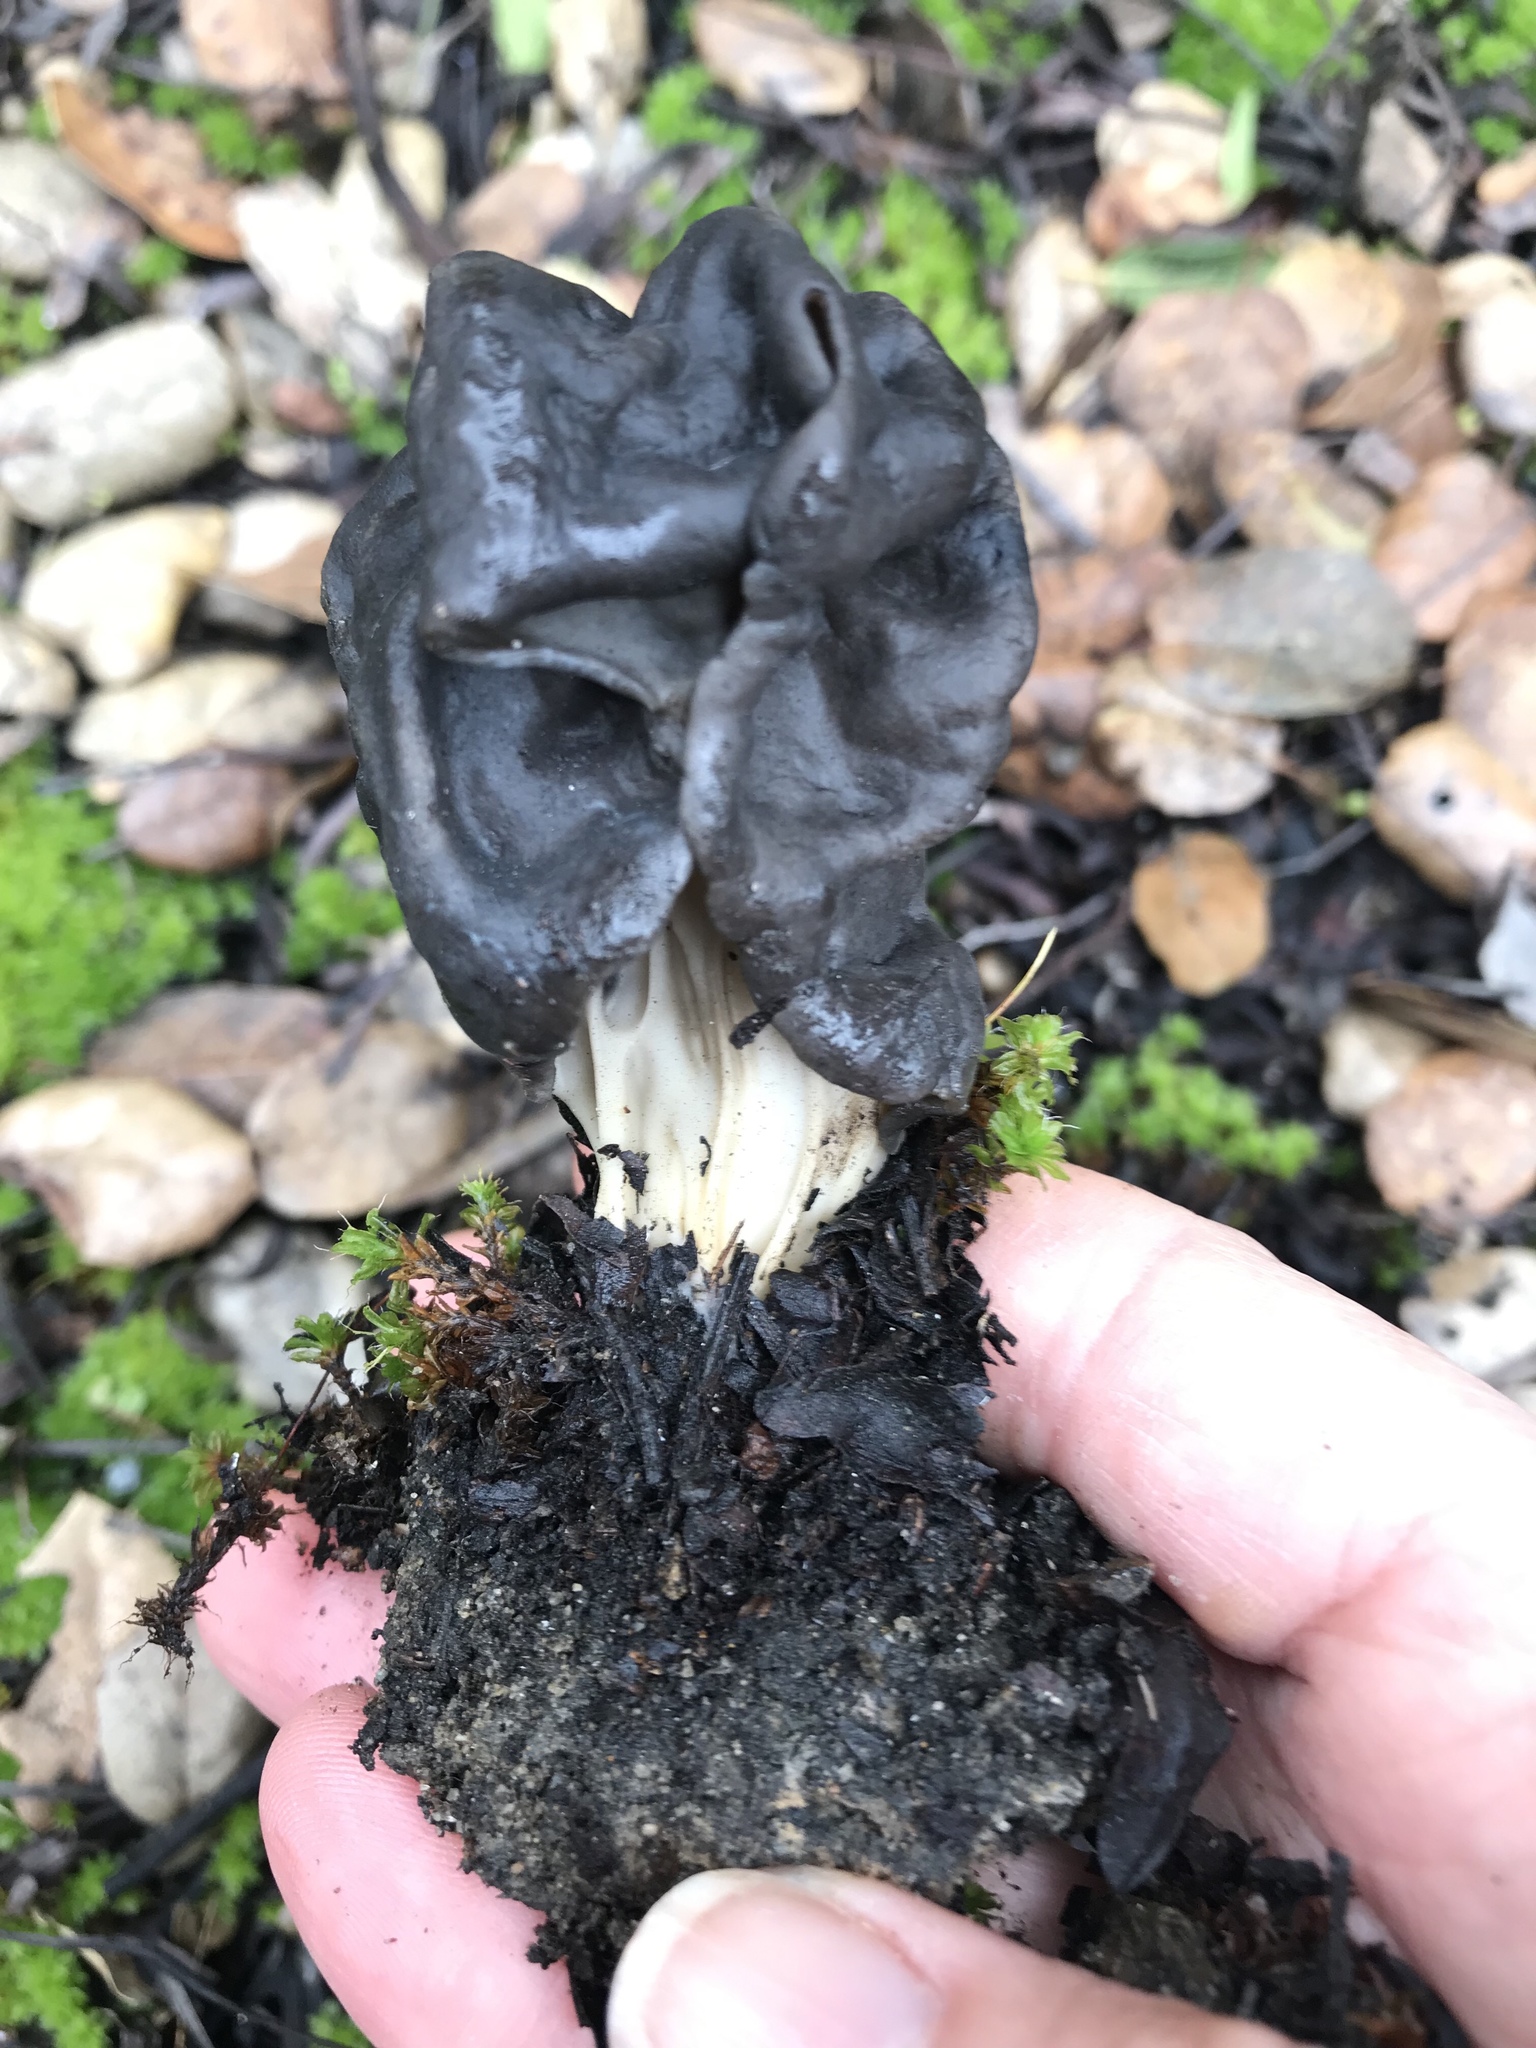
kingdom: Fungi
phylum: Ascomycota
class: Pezizomycetes
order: Pezizales
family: Helvellaceae
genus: Helvella
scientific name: Helvella dryophila
